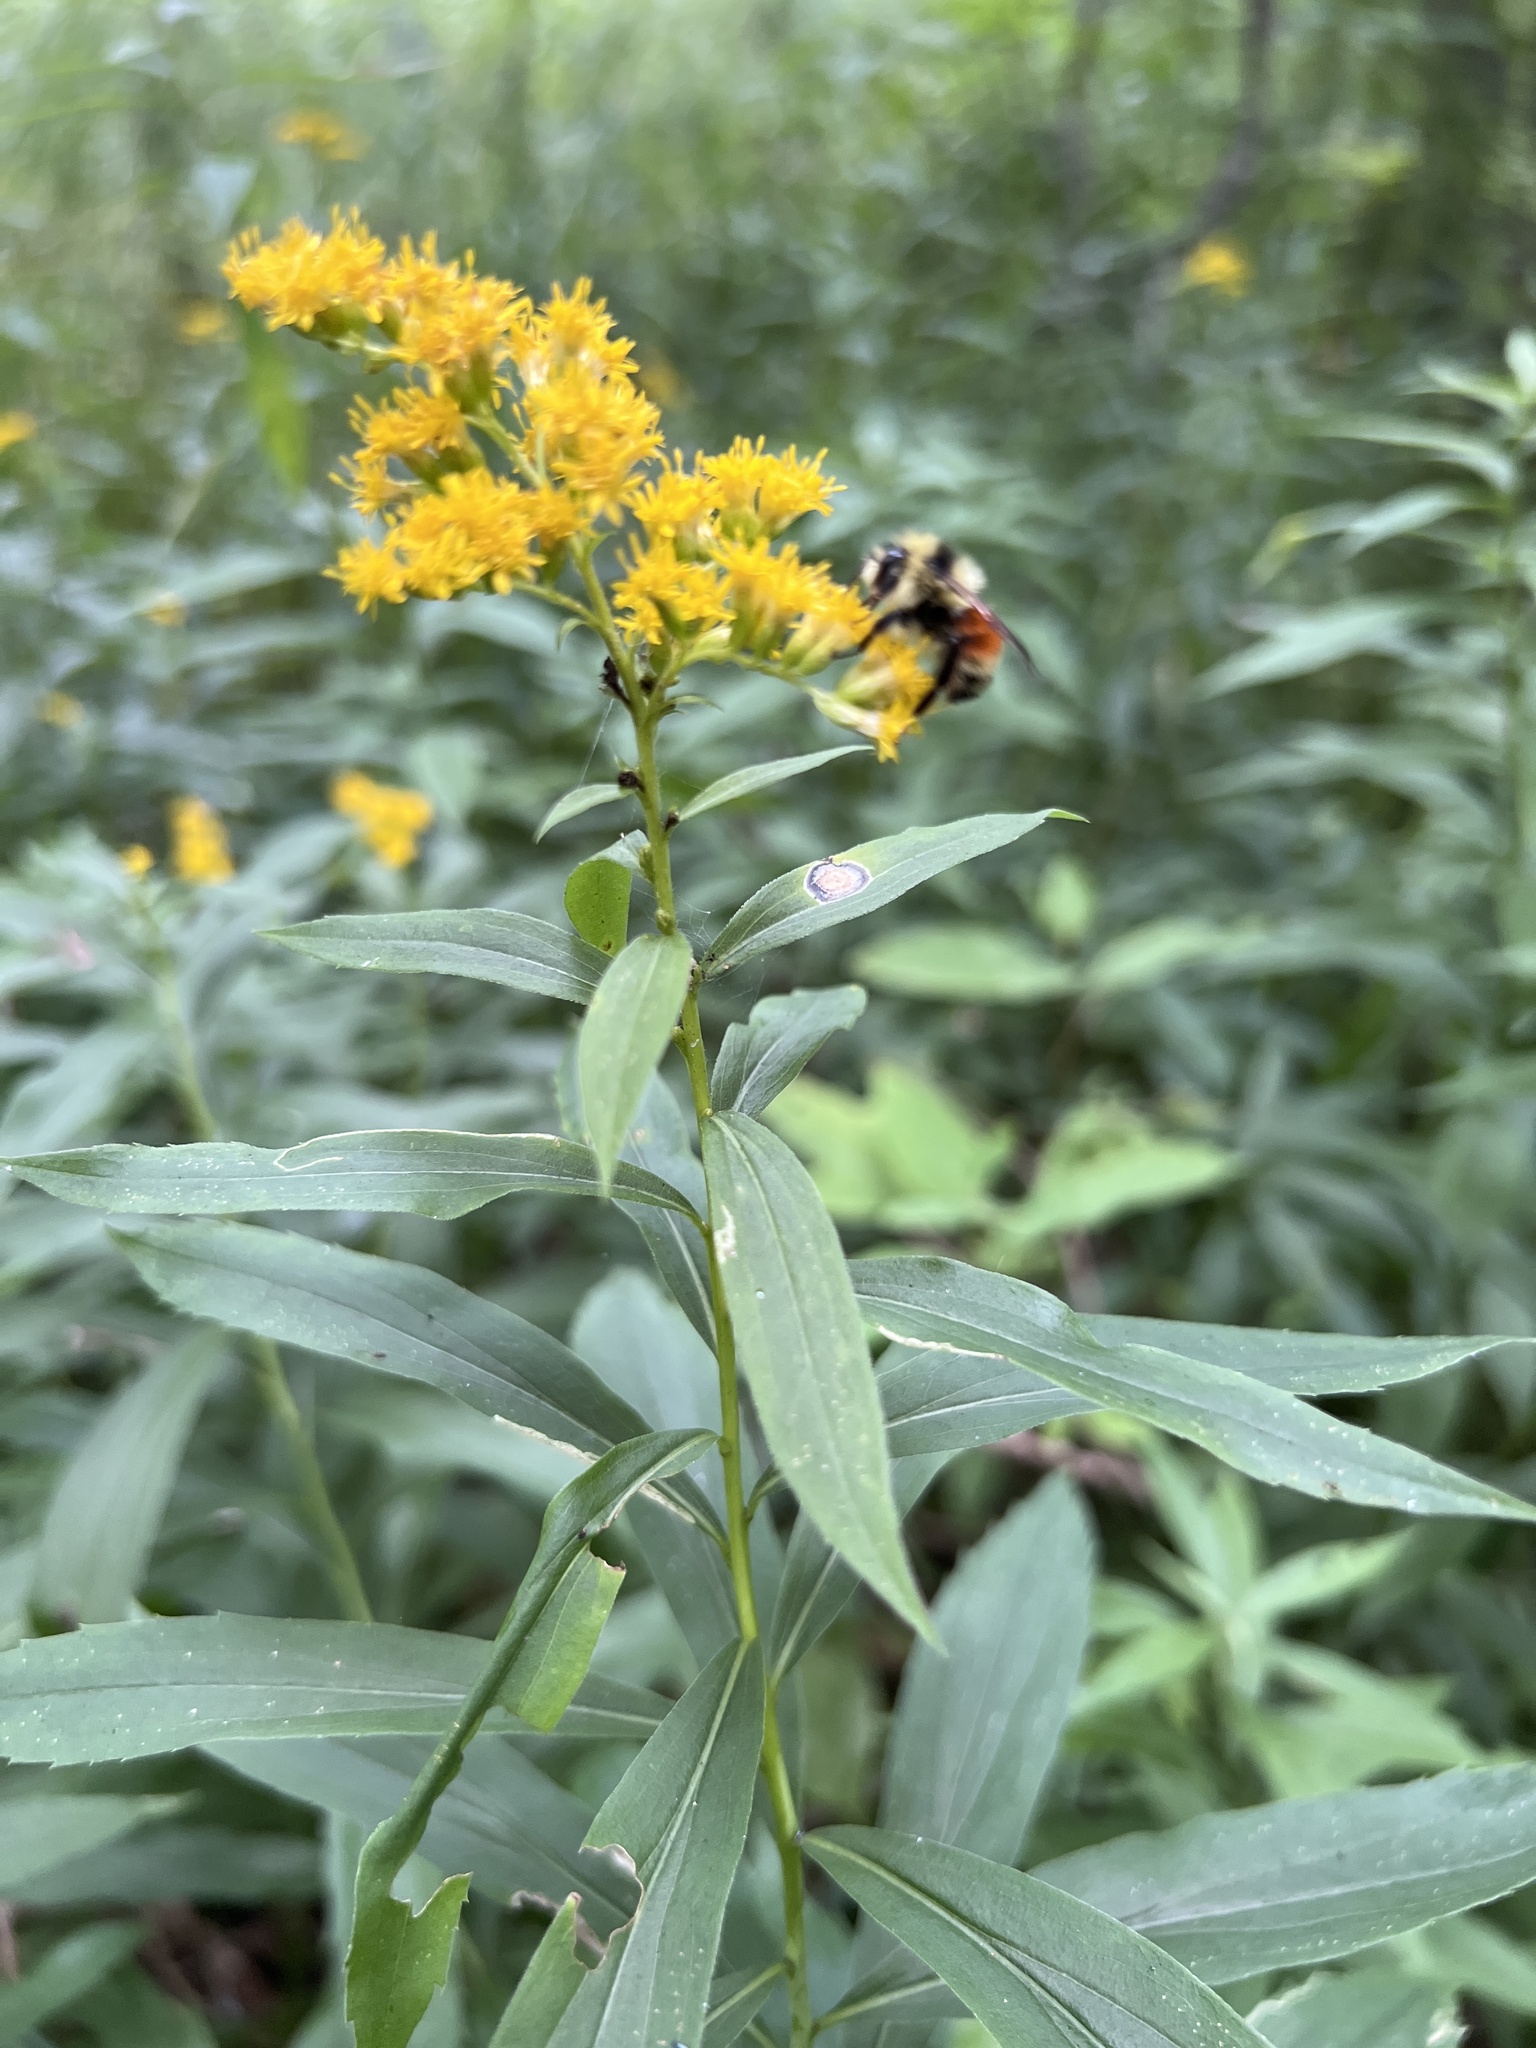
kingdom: Animalia
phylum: Arthropoda
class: Insecta
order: Hymenoptera
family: Apidae
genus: Bombus
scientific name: Bombus ternarius
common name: Tri-colored bumble bee
